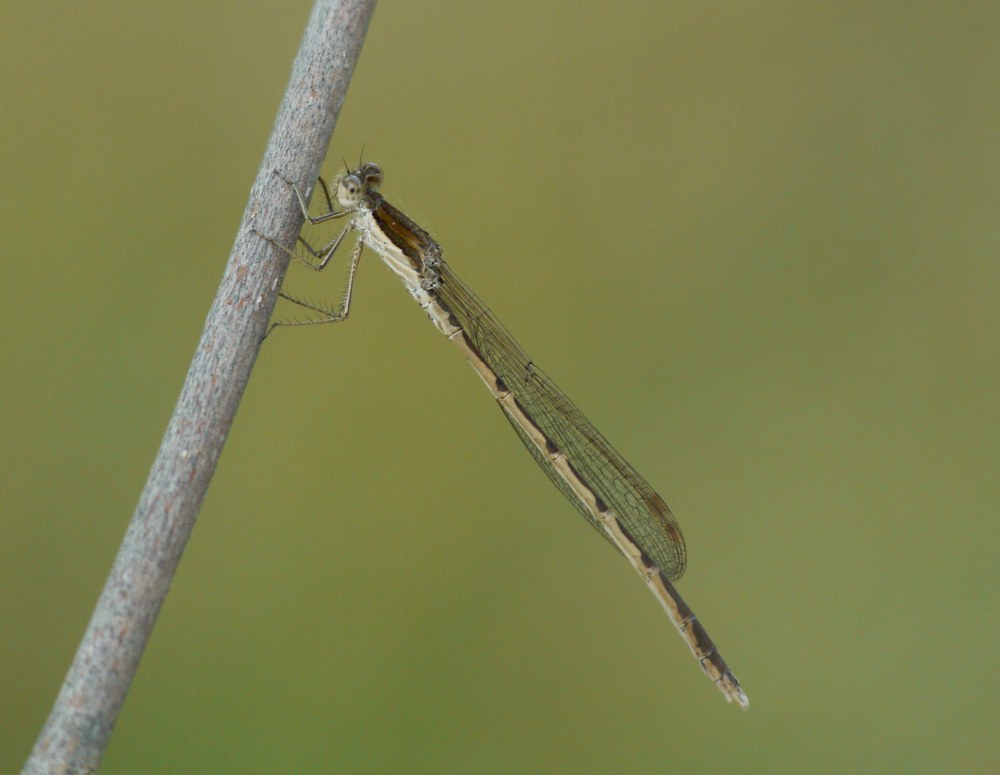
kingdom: Animalia
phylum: Arthropoda
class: Insecta
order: Odonata
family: Lestidae
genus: Sympecma
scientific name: Sympecma fusca
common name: Common winter damsel
